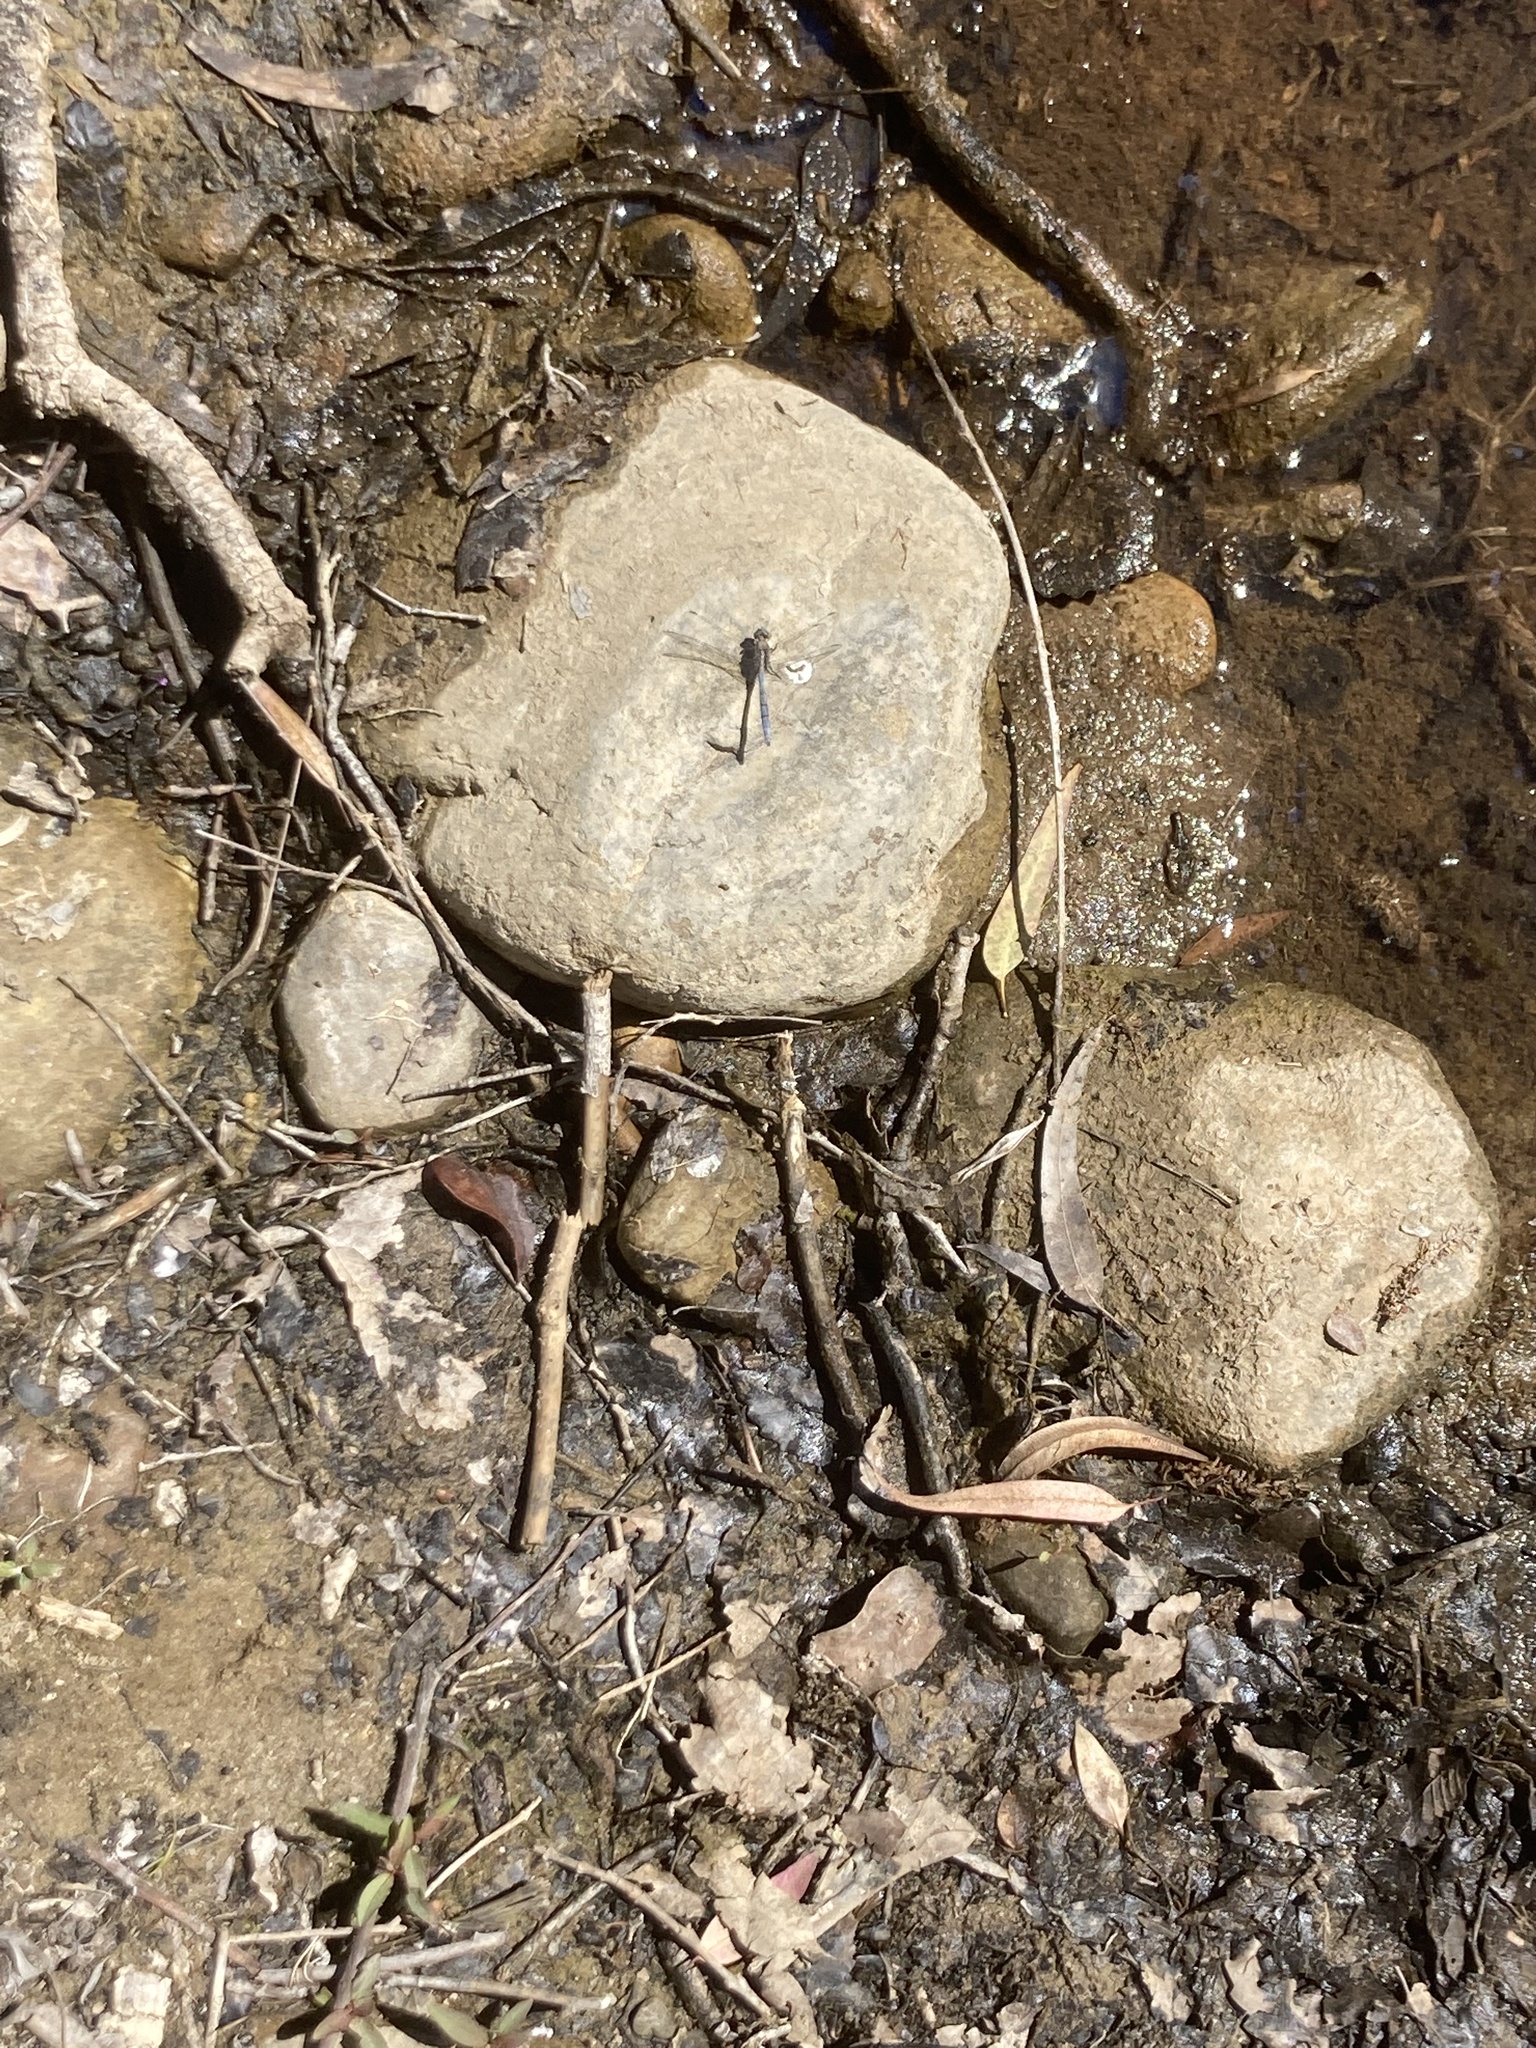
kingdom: Animalia
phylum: Arthropoda
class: Insecta
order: Odonata
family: Libellulidae
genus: Orthetrum
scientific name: Orthetrum chrysostigma
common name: Epaulet skimmer
